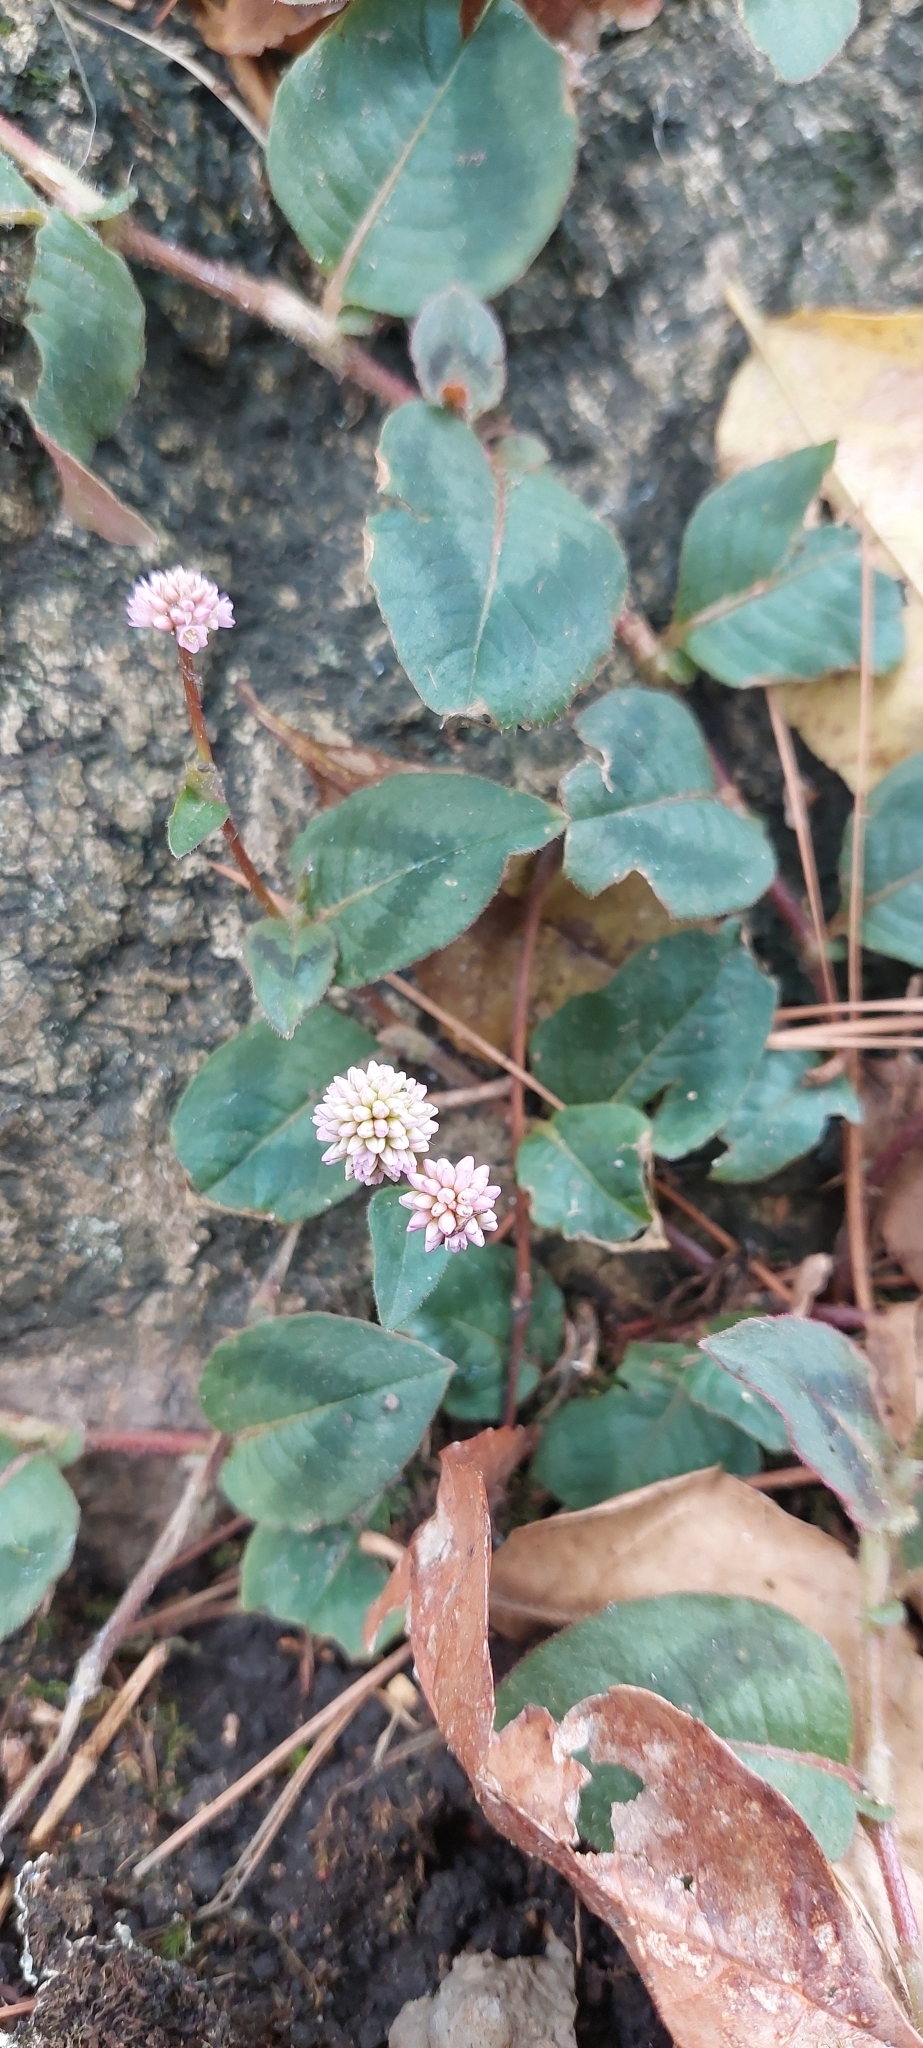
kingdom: Plantae
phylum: Tracheophyta
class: Magnoliopsida
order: Caryophyllales
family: Polygonaceae
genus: Persicaria
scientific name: Persicaria capitata
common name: Pinkhead smartweed
